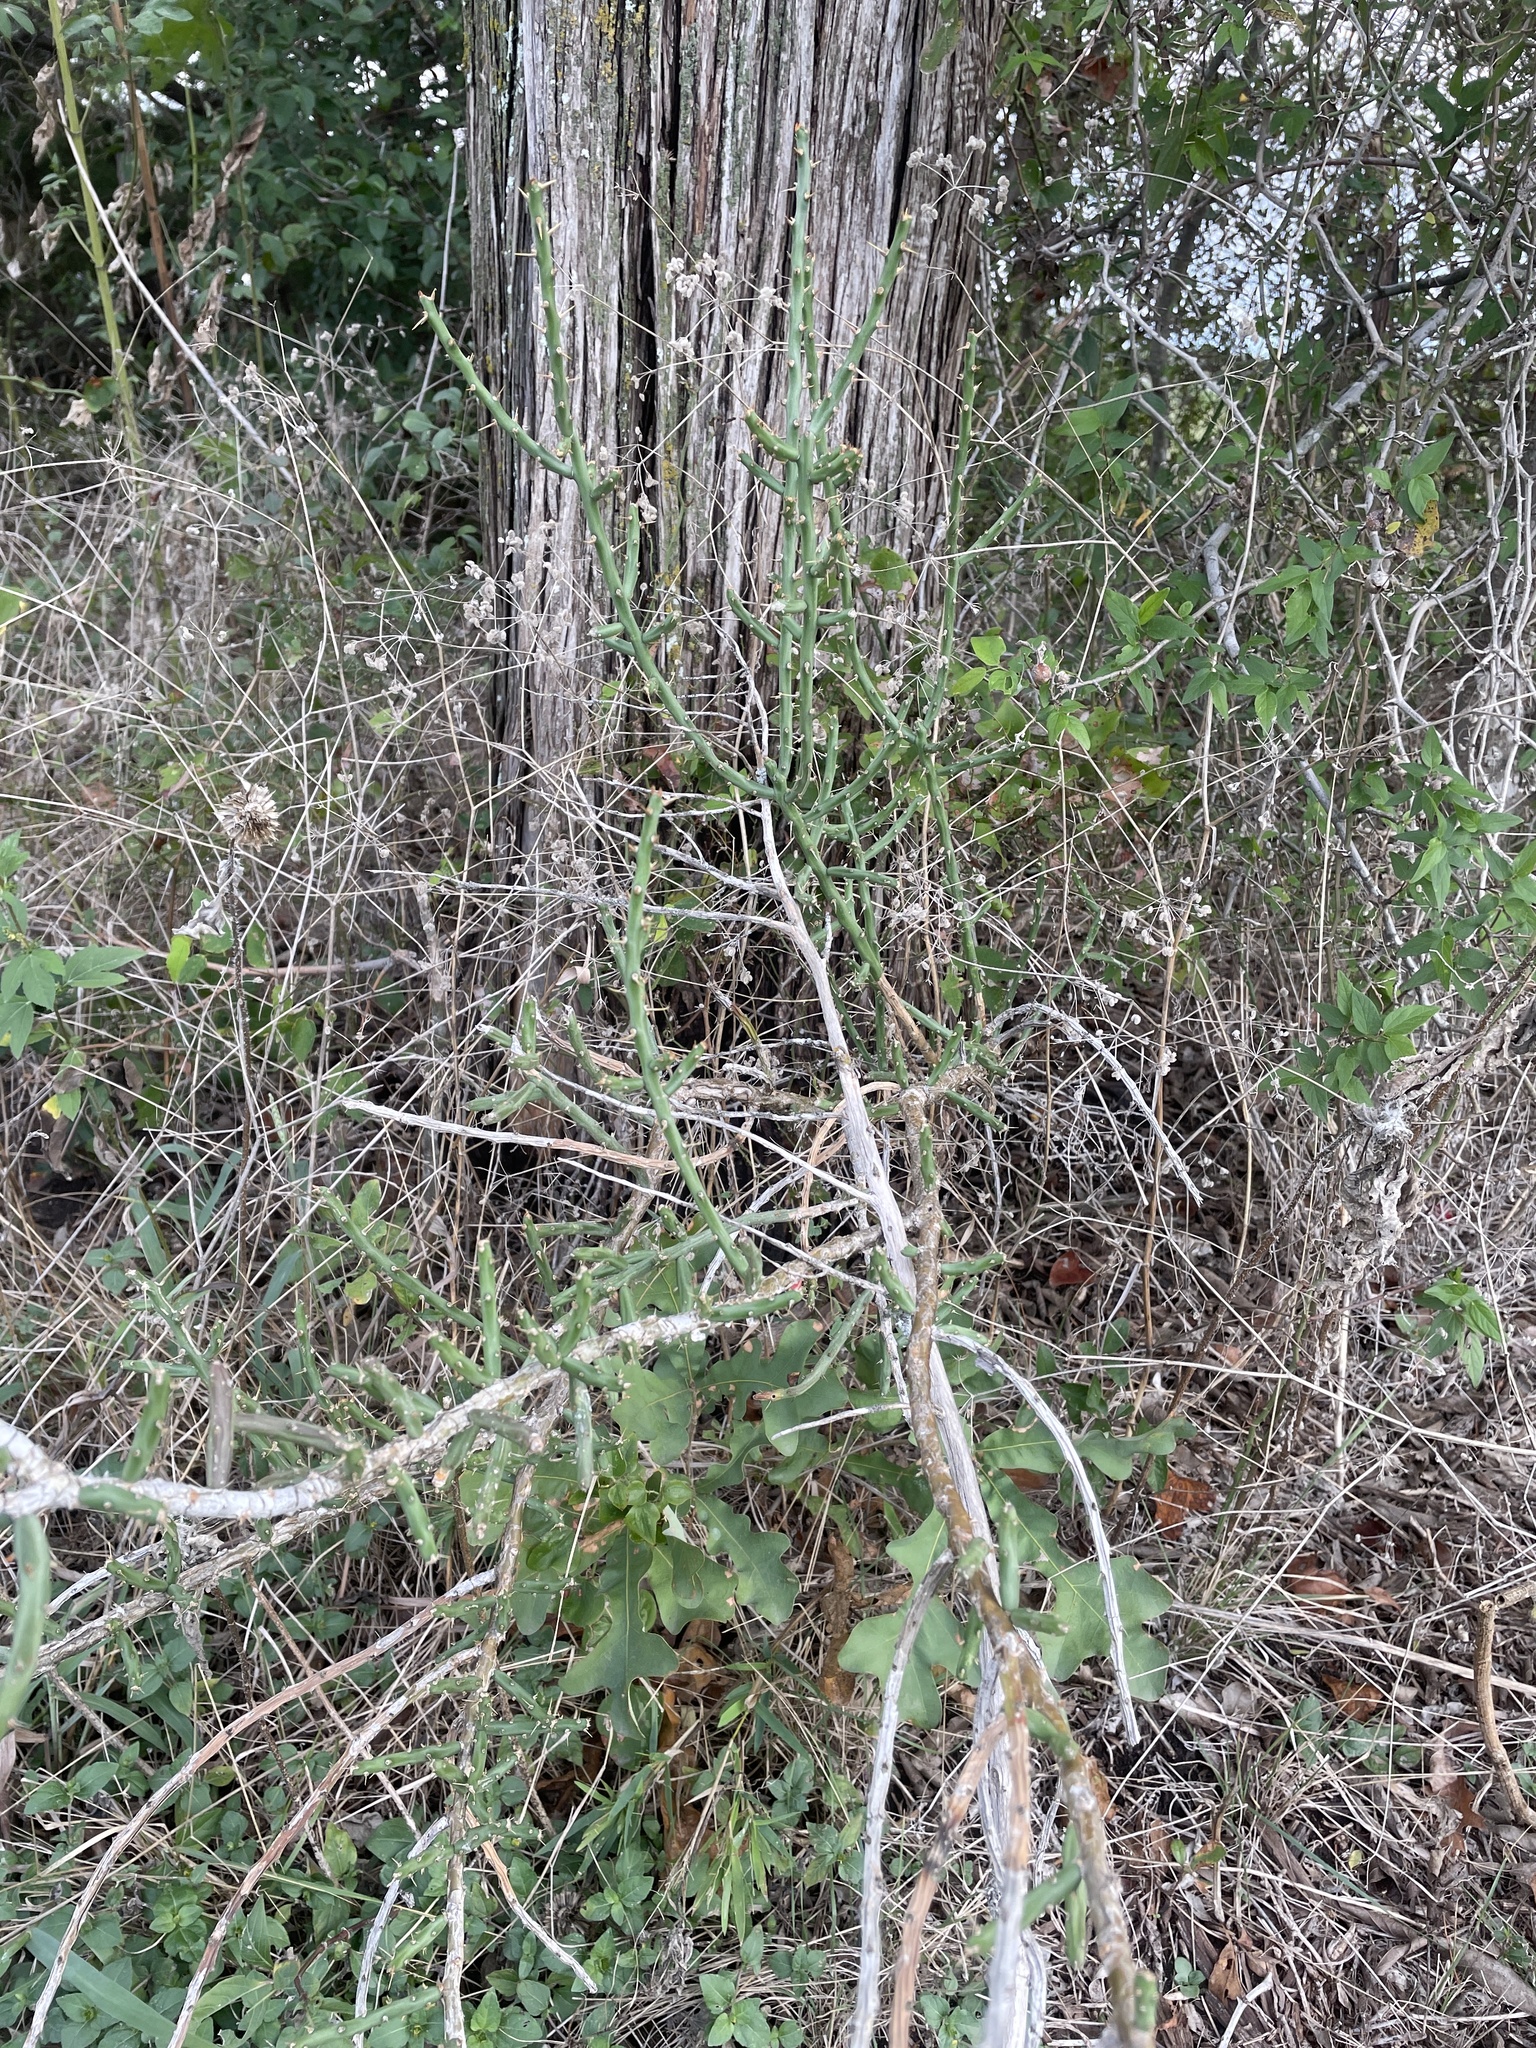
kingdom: Plantae
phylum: Tracheophyta
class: Magnoliopsida
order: Caryophyllales
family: Cactaceae
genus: Cylindropuntia
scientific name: Cylindropuntia leptocaulis
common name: Christmas cactus
